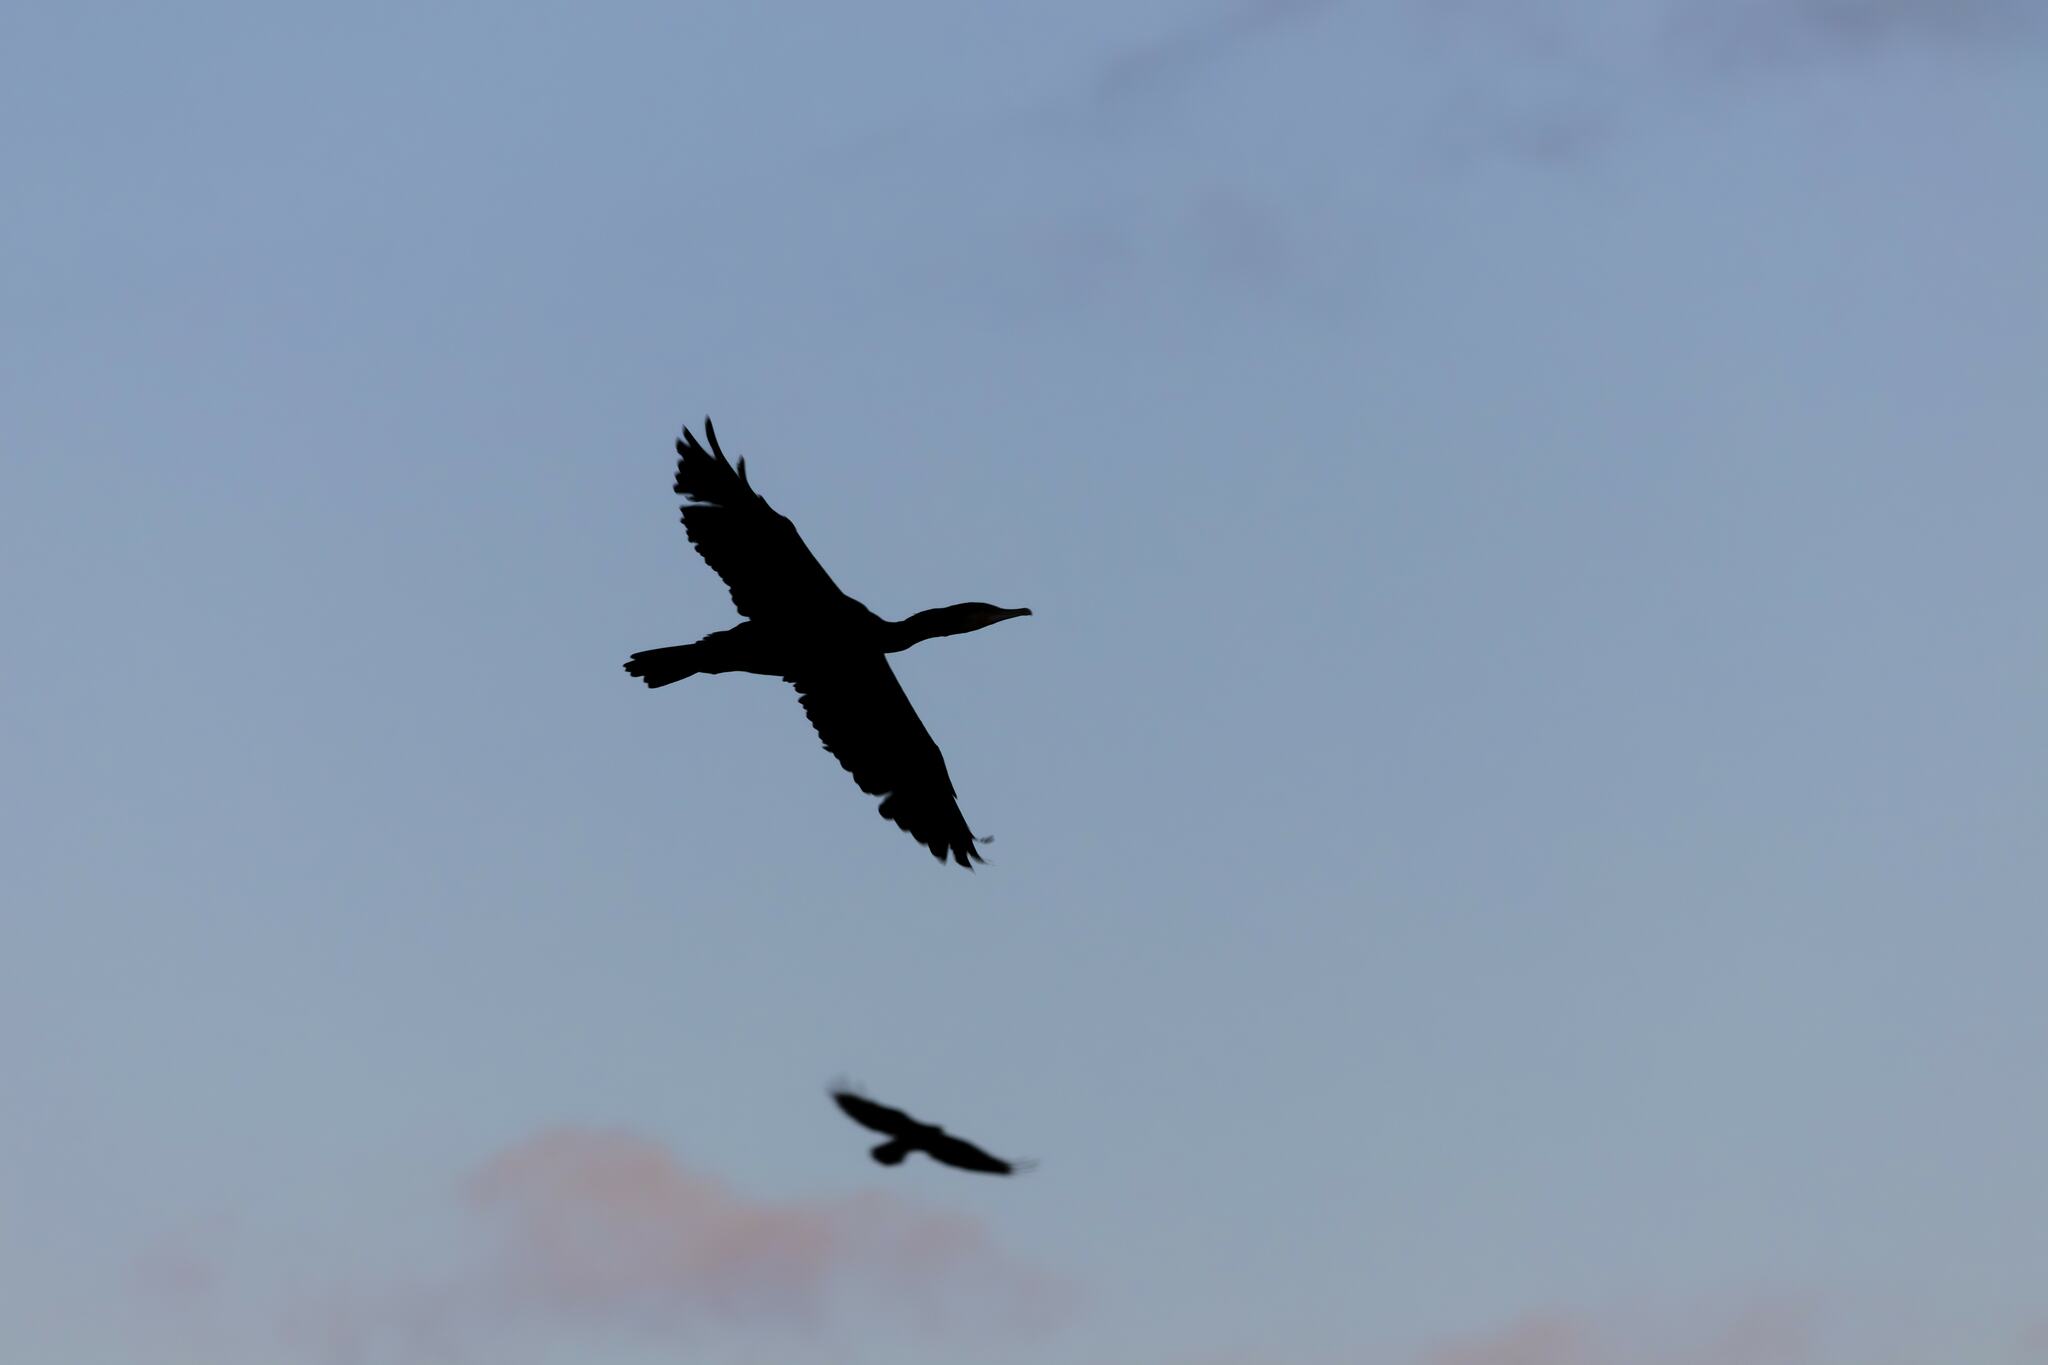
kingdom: Animalia
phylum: Chordata
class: Aves
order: Suliformes
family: Phalacrocoracidae
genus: Phalacrocorax
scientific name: Phalacrocorax carbo
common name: Great cormorant
